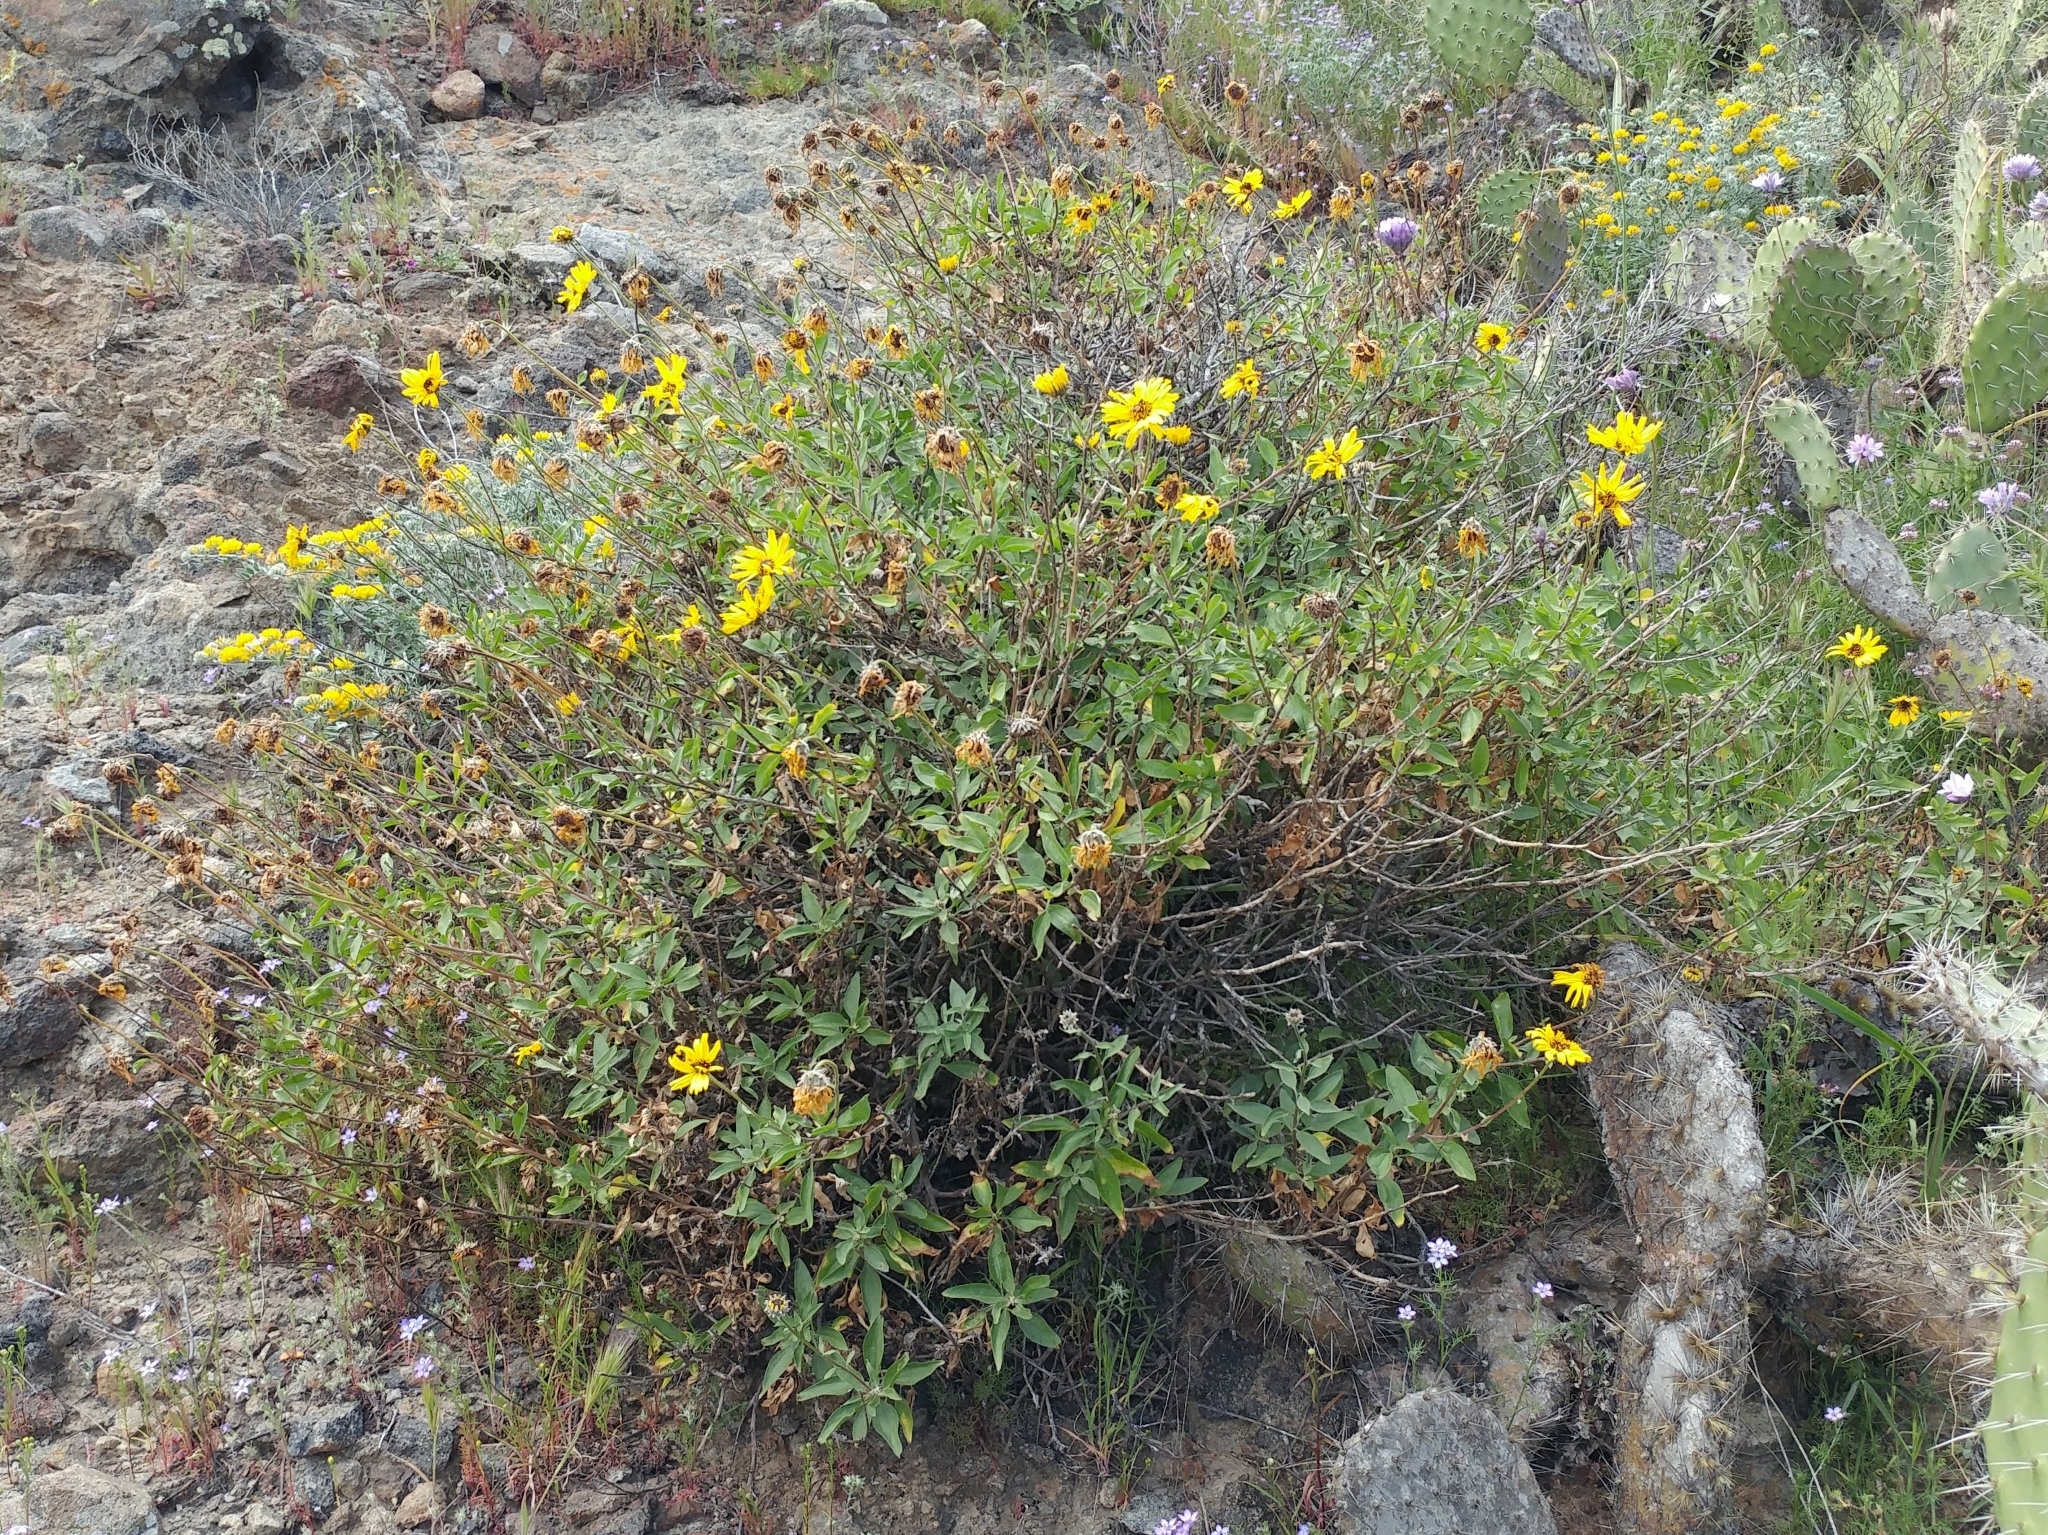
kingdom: Plantae
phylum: Tracheophyta
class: Magnoliopsida
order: Asterales
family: Asteraceae
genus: Encelia
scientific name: Encelia californica
